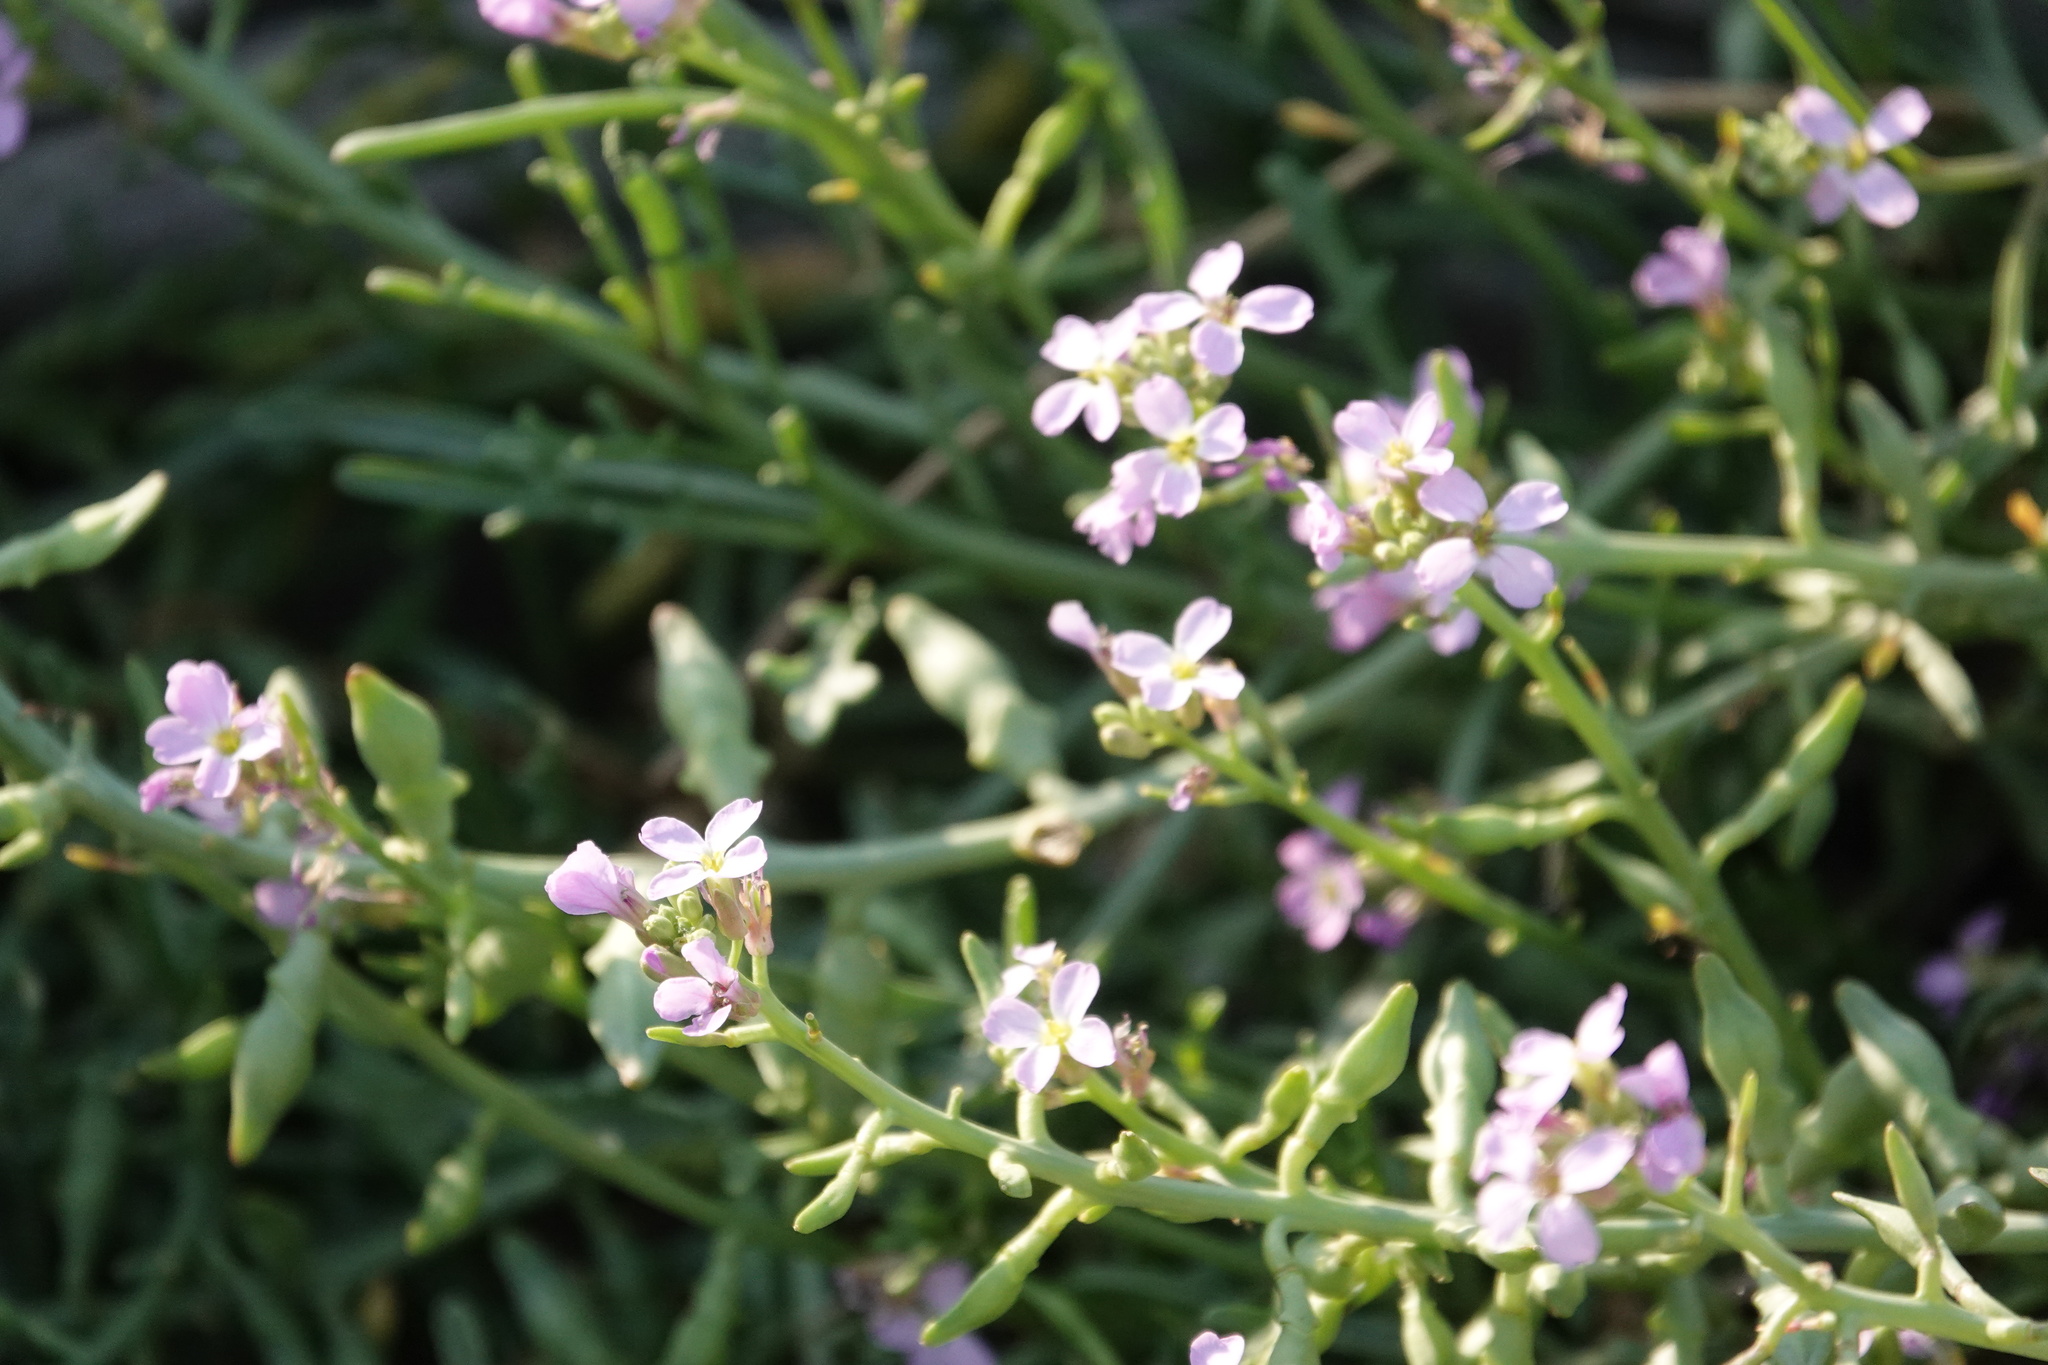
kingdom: Plantae
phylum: Tracheophyta
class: Magnoliopsida
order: Brassicales
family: Brassicaceae
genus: Cakile
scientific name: Cakile maritima
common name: Sea rocket
